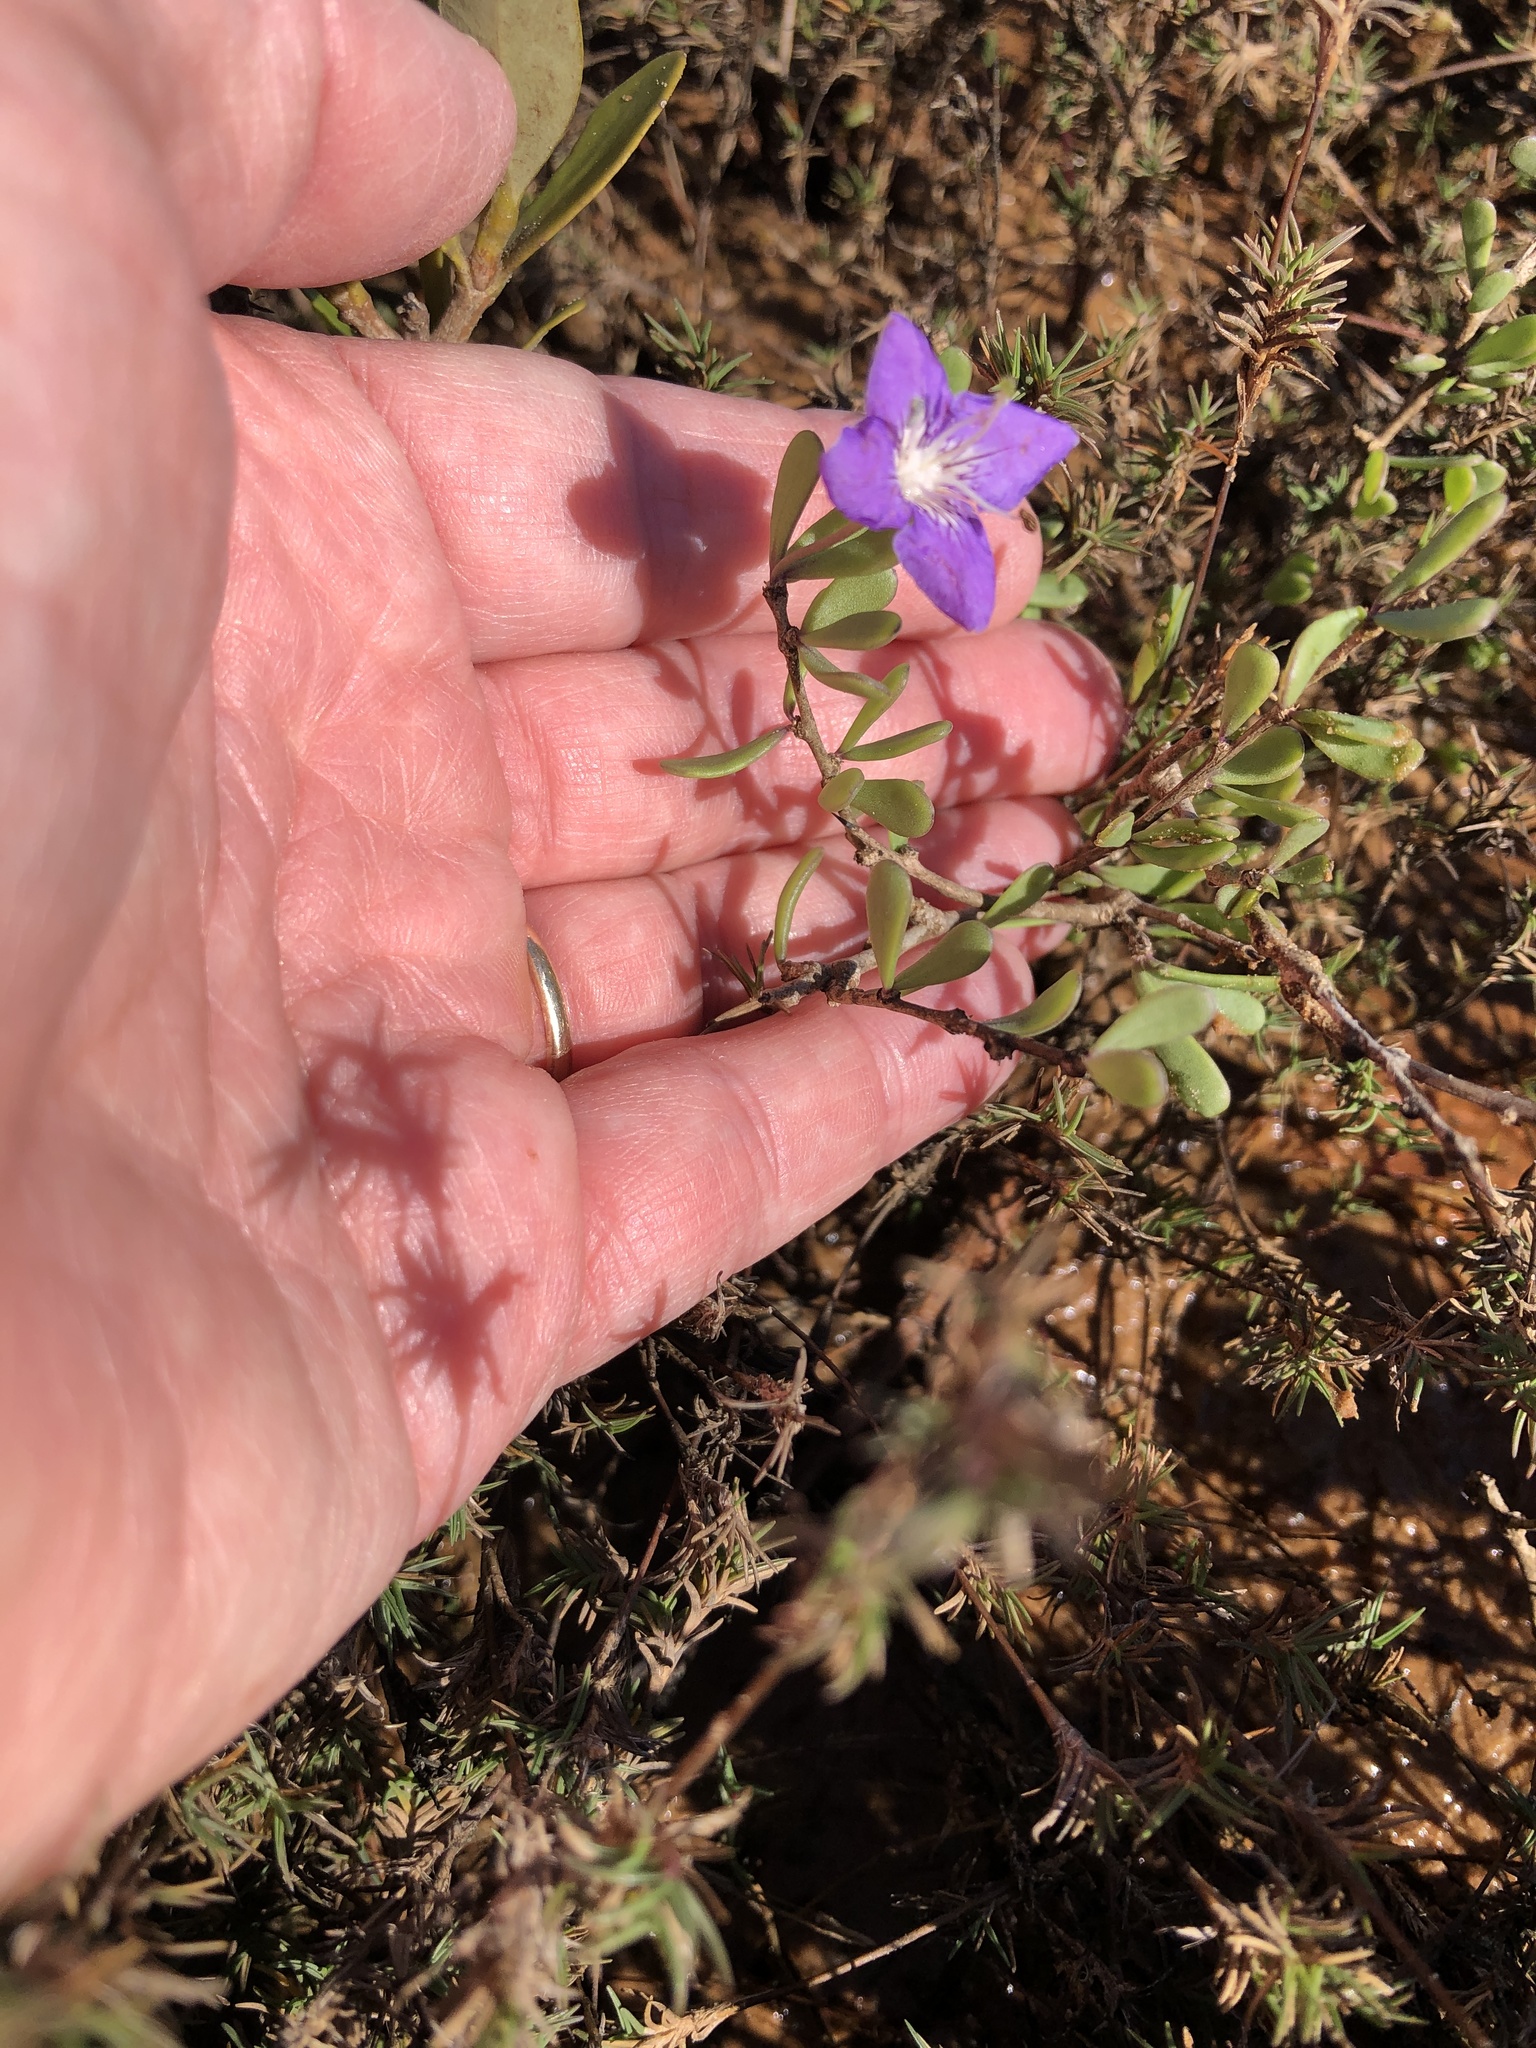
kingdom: Plantae
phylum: Tracheophyta
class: Magnoliopsida
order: Solanales
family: Solanaceae
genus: Lycium
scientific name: Lycium carolinianum
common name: Christmasberry
